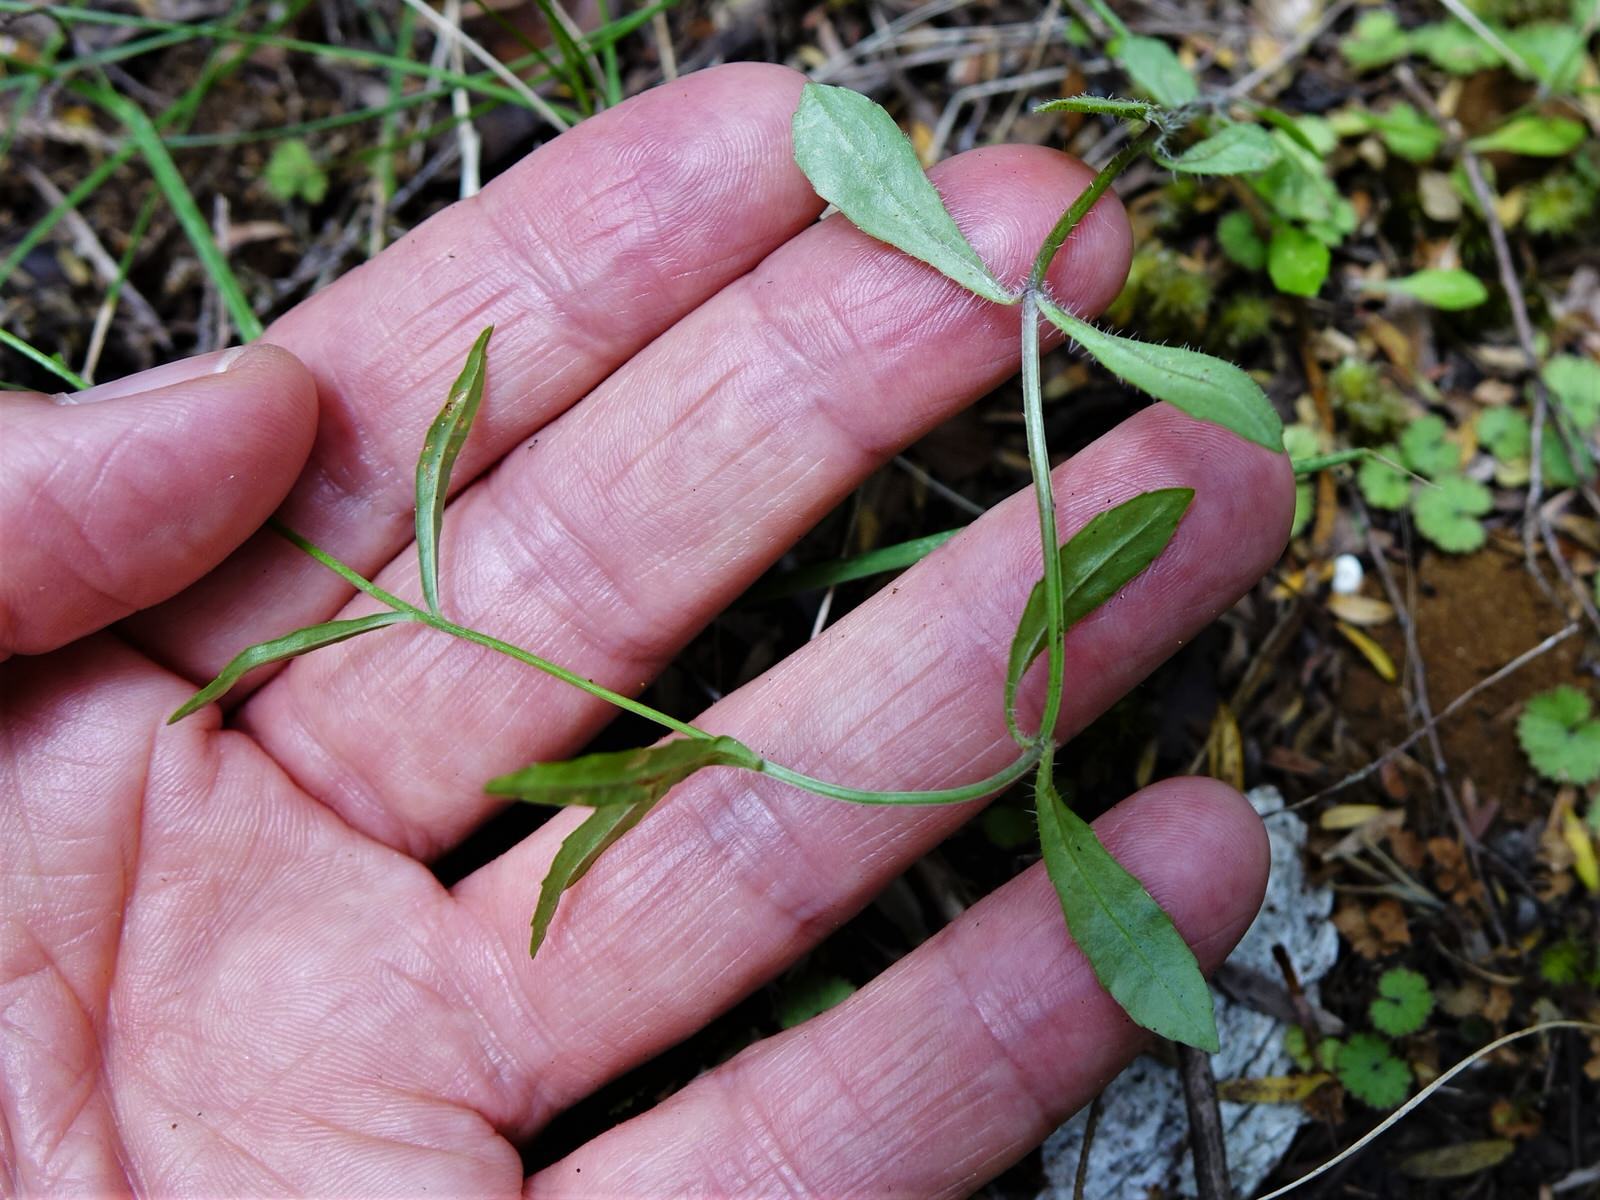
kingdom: Plantae
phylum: Tracheophyta
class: Magnoliopsida
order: Asterales
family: Campanulaceae
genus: Wahlenbergia
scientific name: Wahlenbergia violacea
